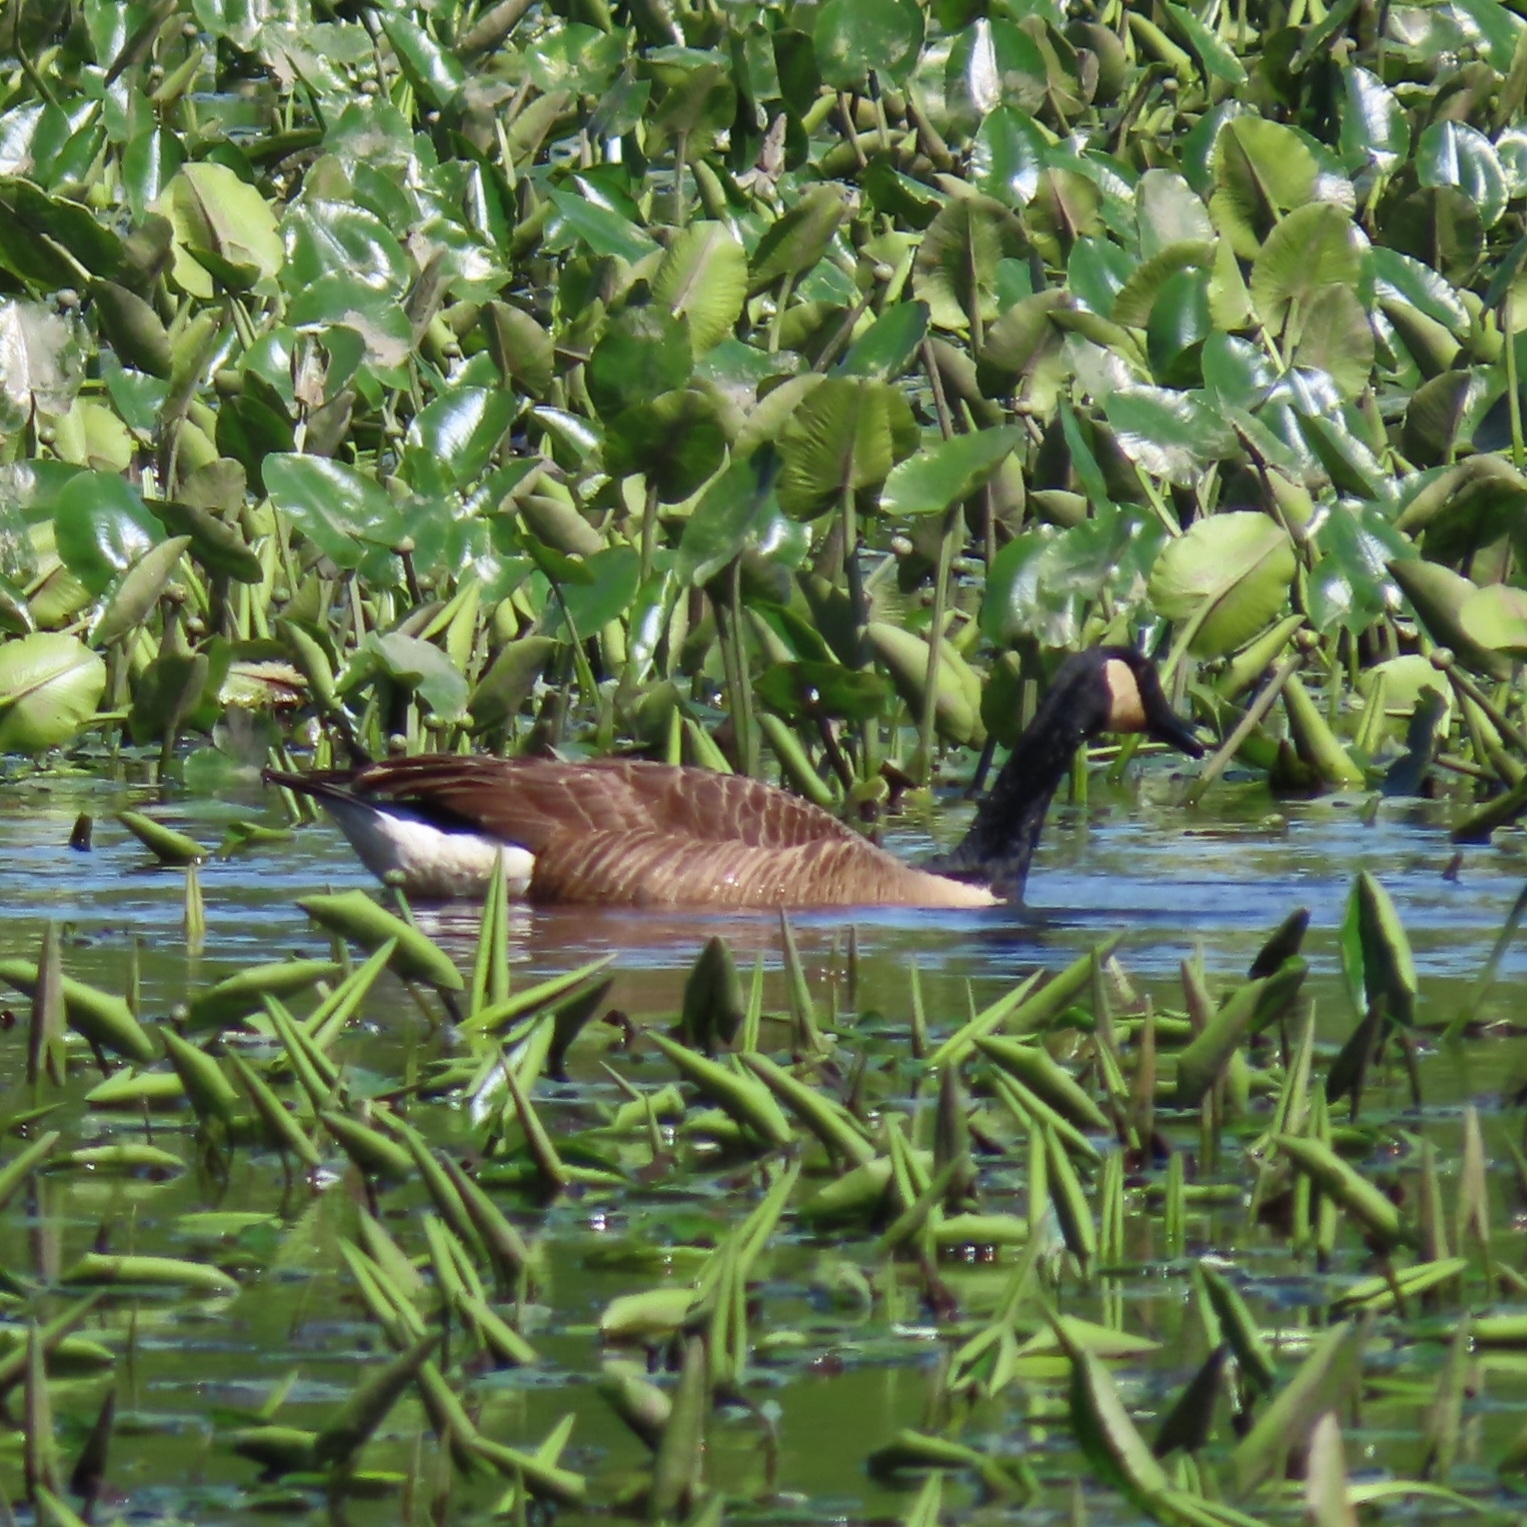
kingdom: Animalia
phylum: Chordata
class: Aves
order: Anseriformes
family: Anatidae
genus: Branta
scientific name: Branta canadensis
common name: Canada goose
